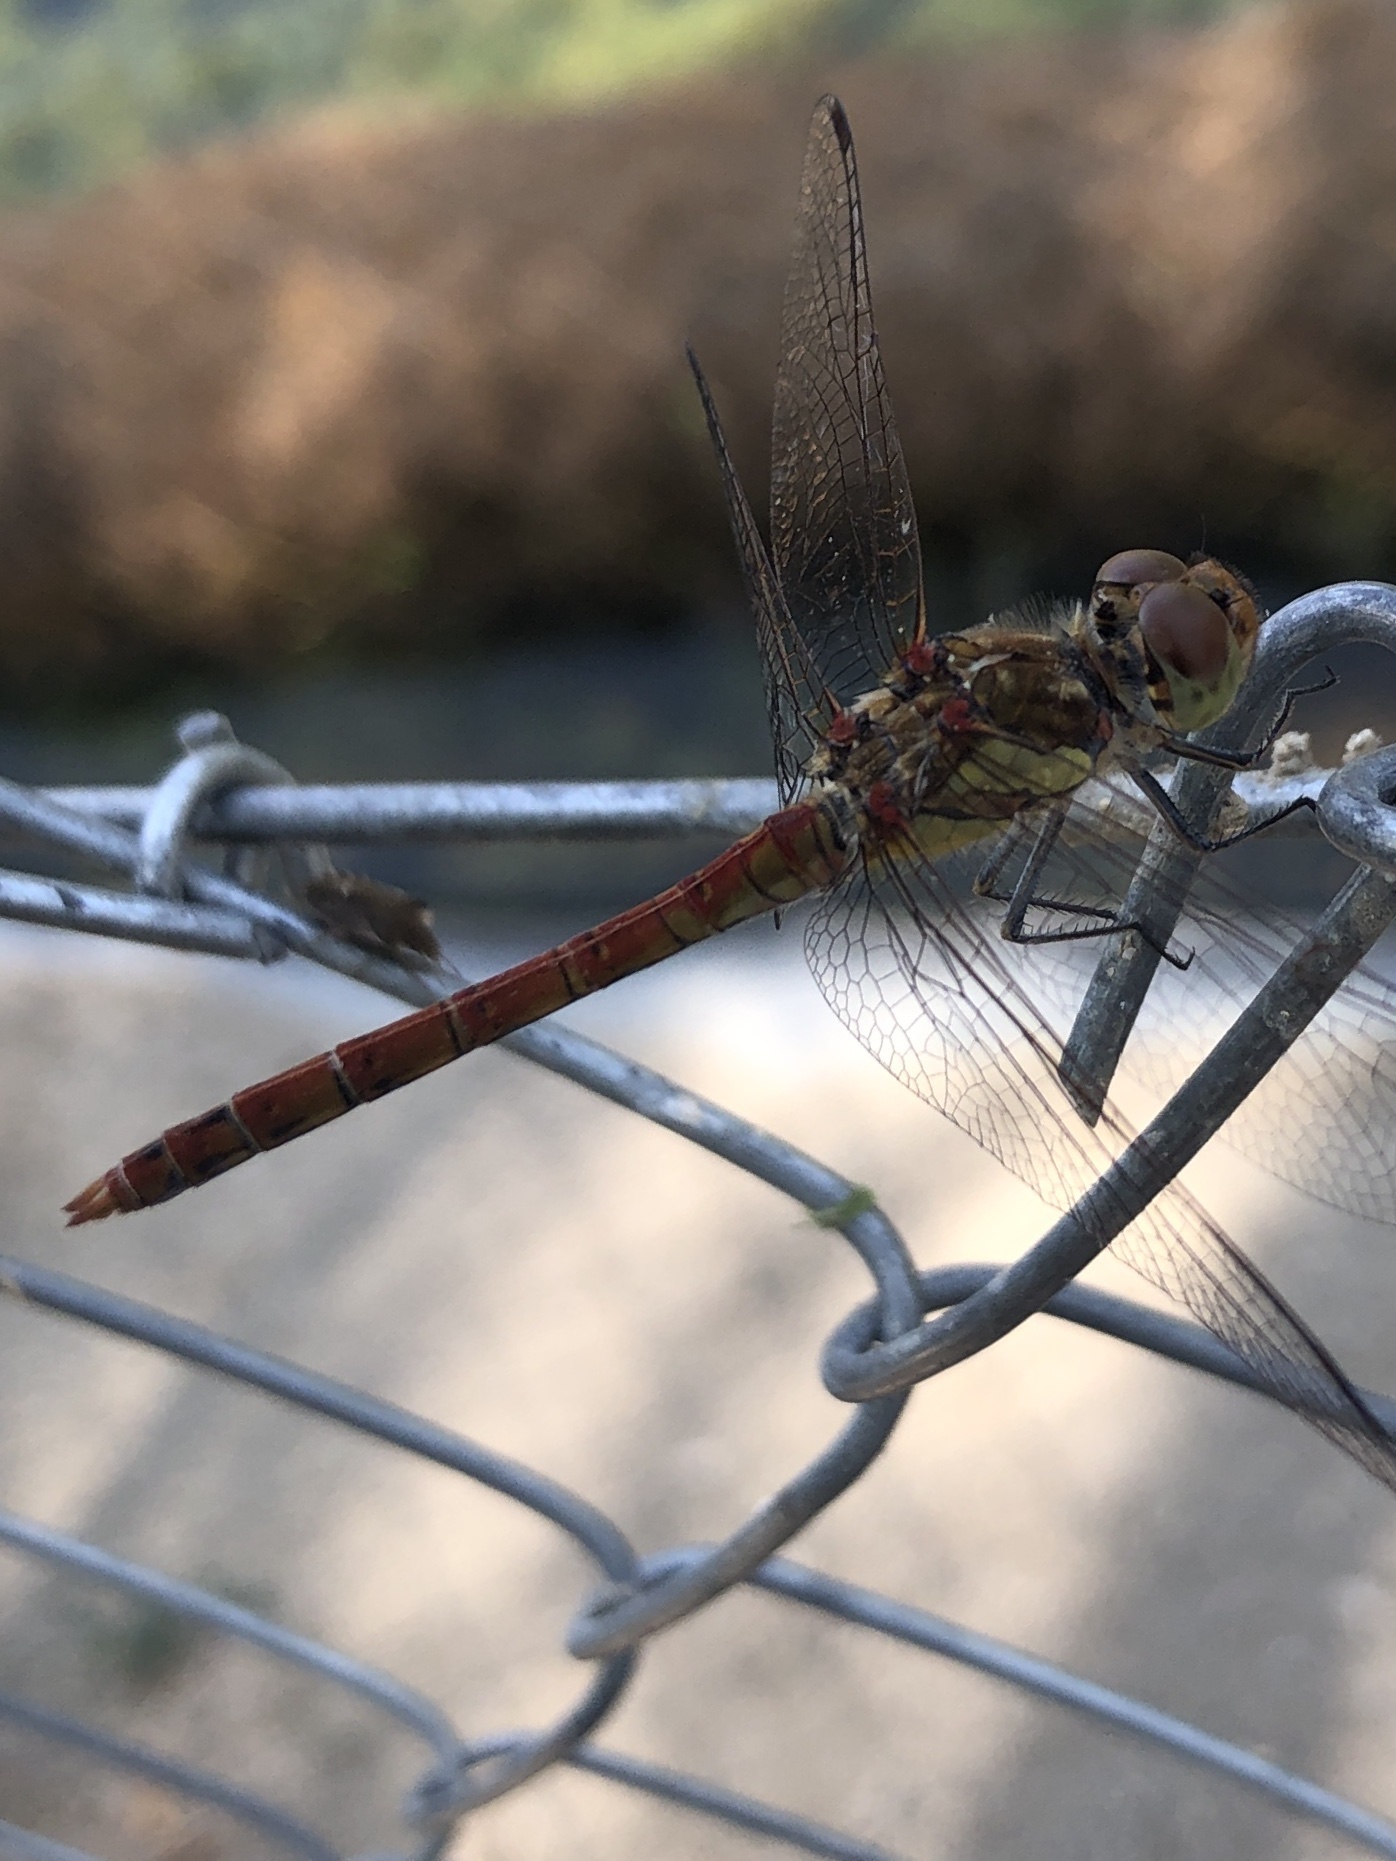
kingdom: Animalia
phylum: Arthropoda
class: Insecta
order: Odonata
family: Libellulidae
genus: Sympetrum
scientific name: Sympetrum striolatum
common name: Common darter
